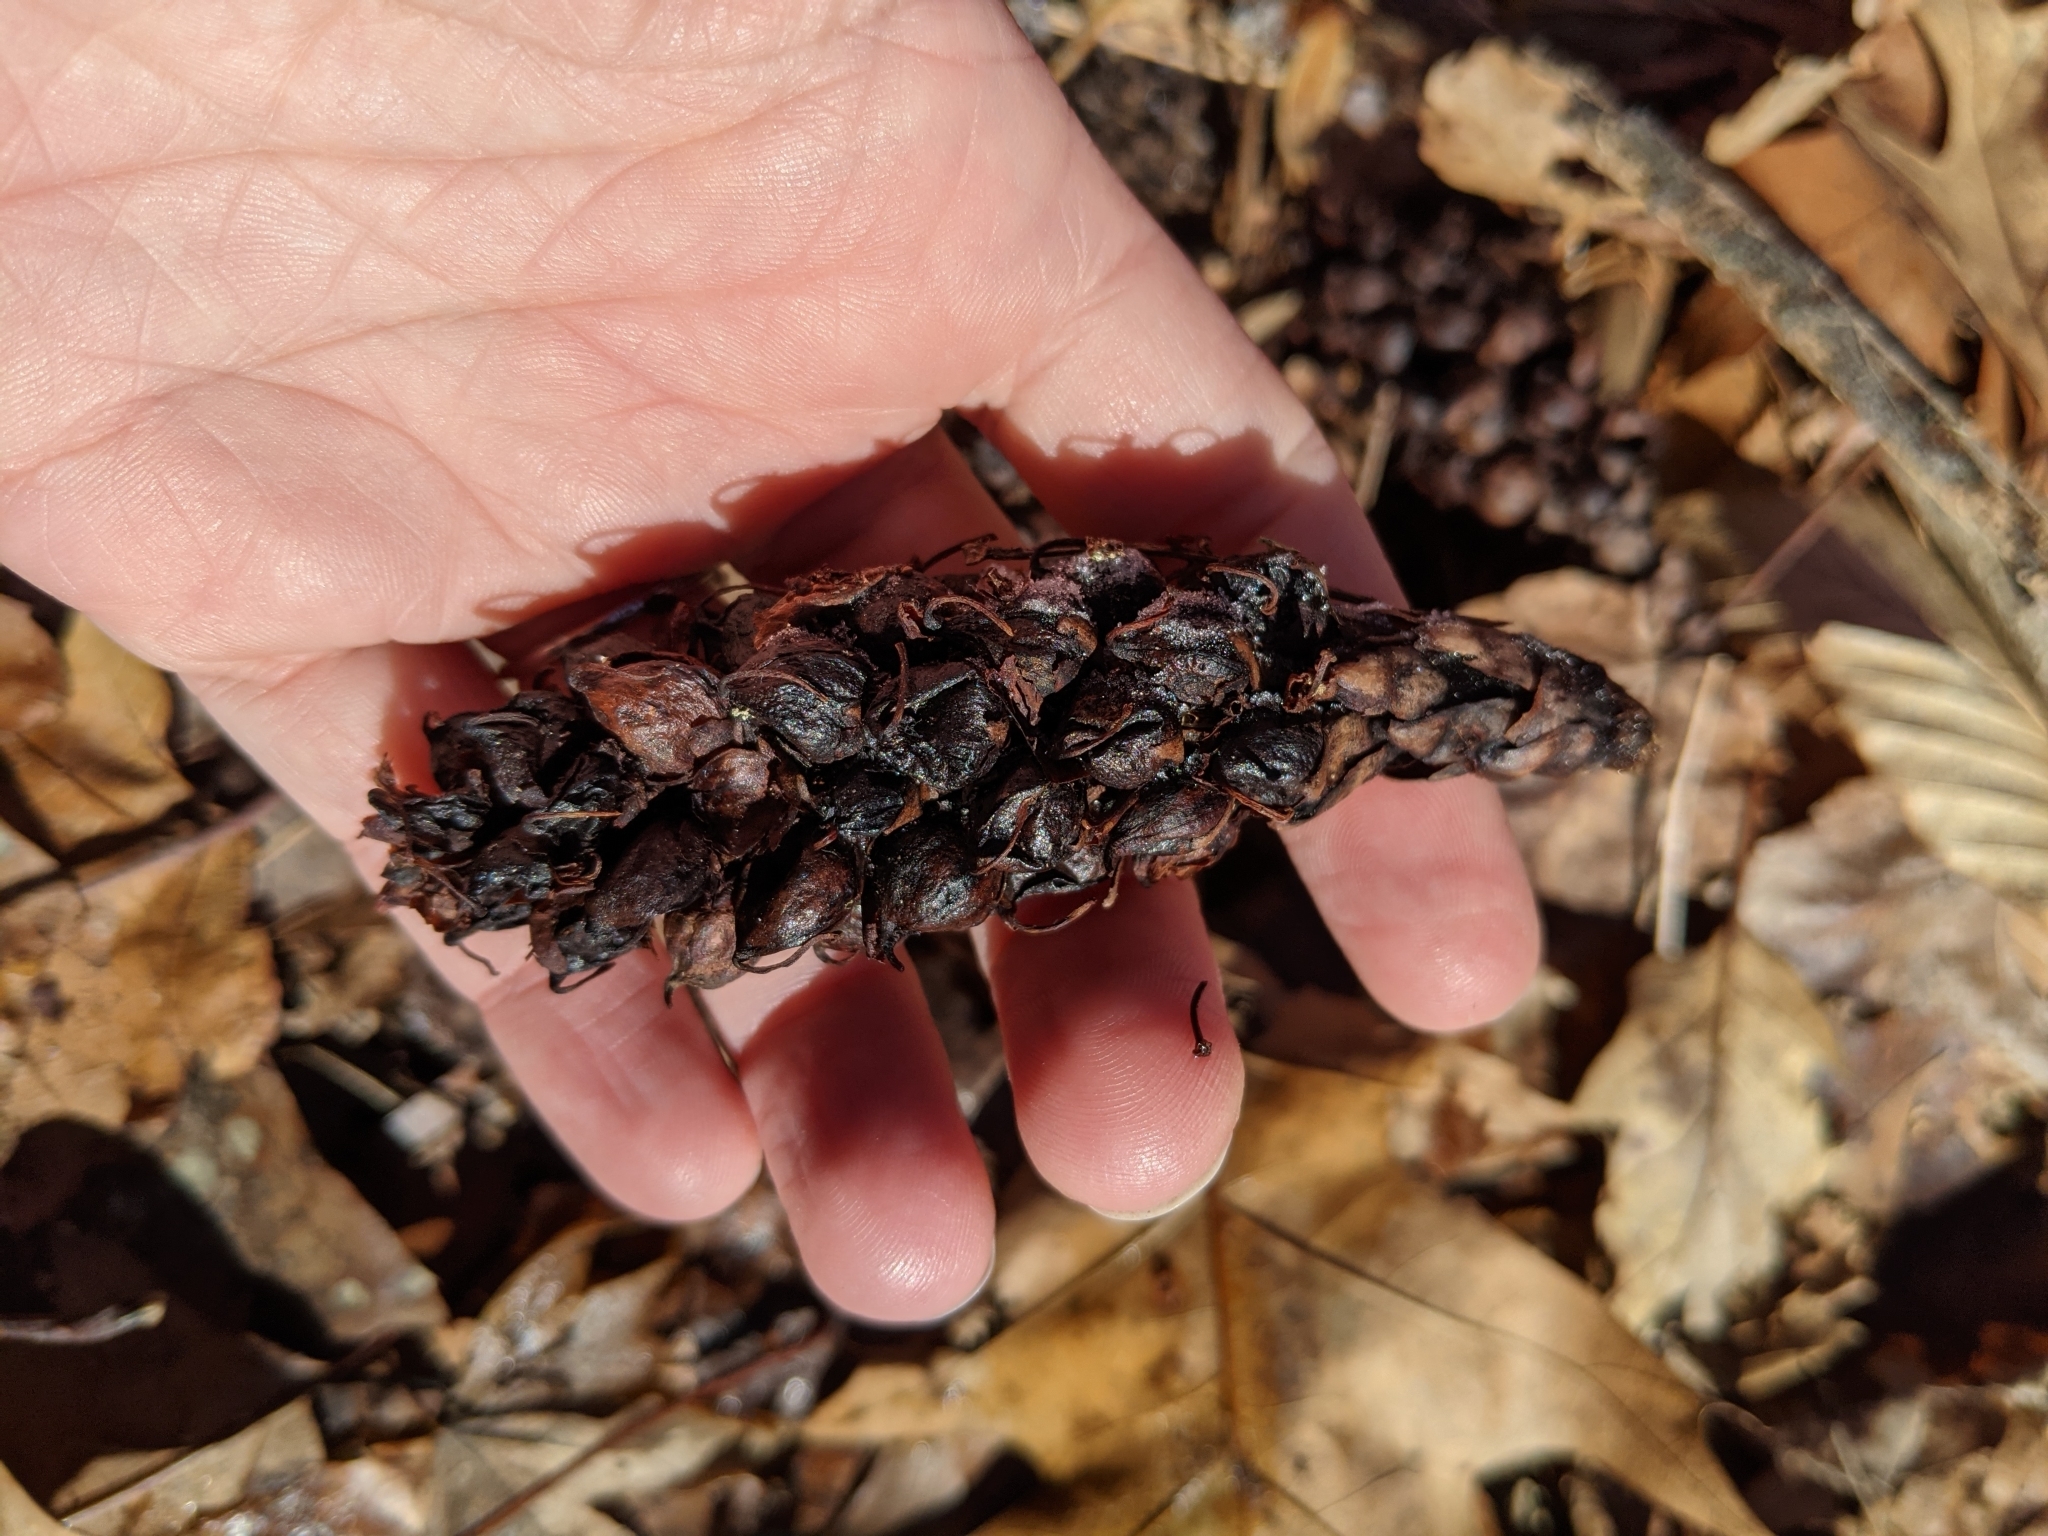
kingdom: Plantae
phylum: Tracheophyta
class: Magnoliopsida
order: Lamiales
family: Orobanchaceae
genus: Conopholis
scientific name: Conopholis americana
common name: American cancer-root
